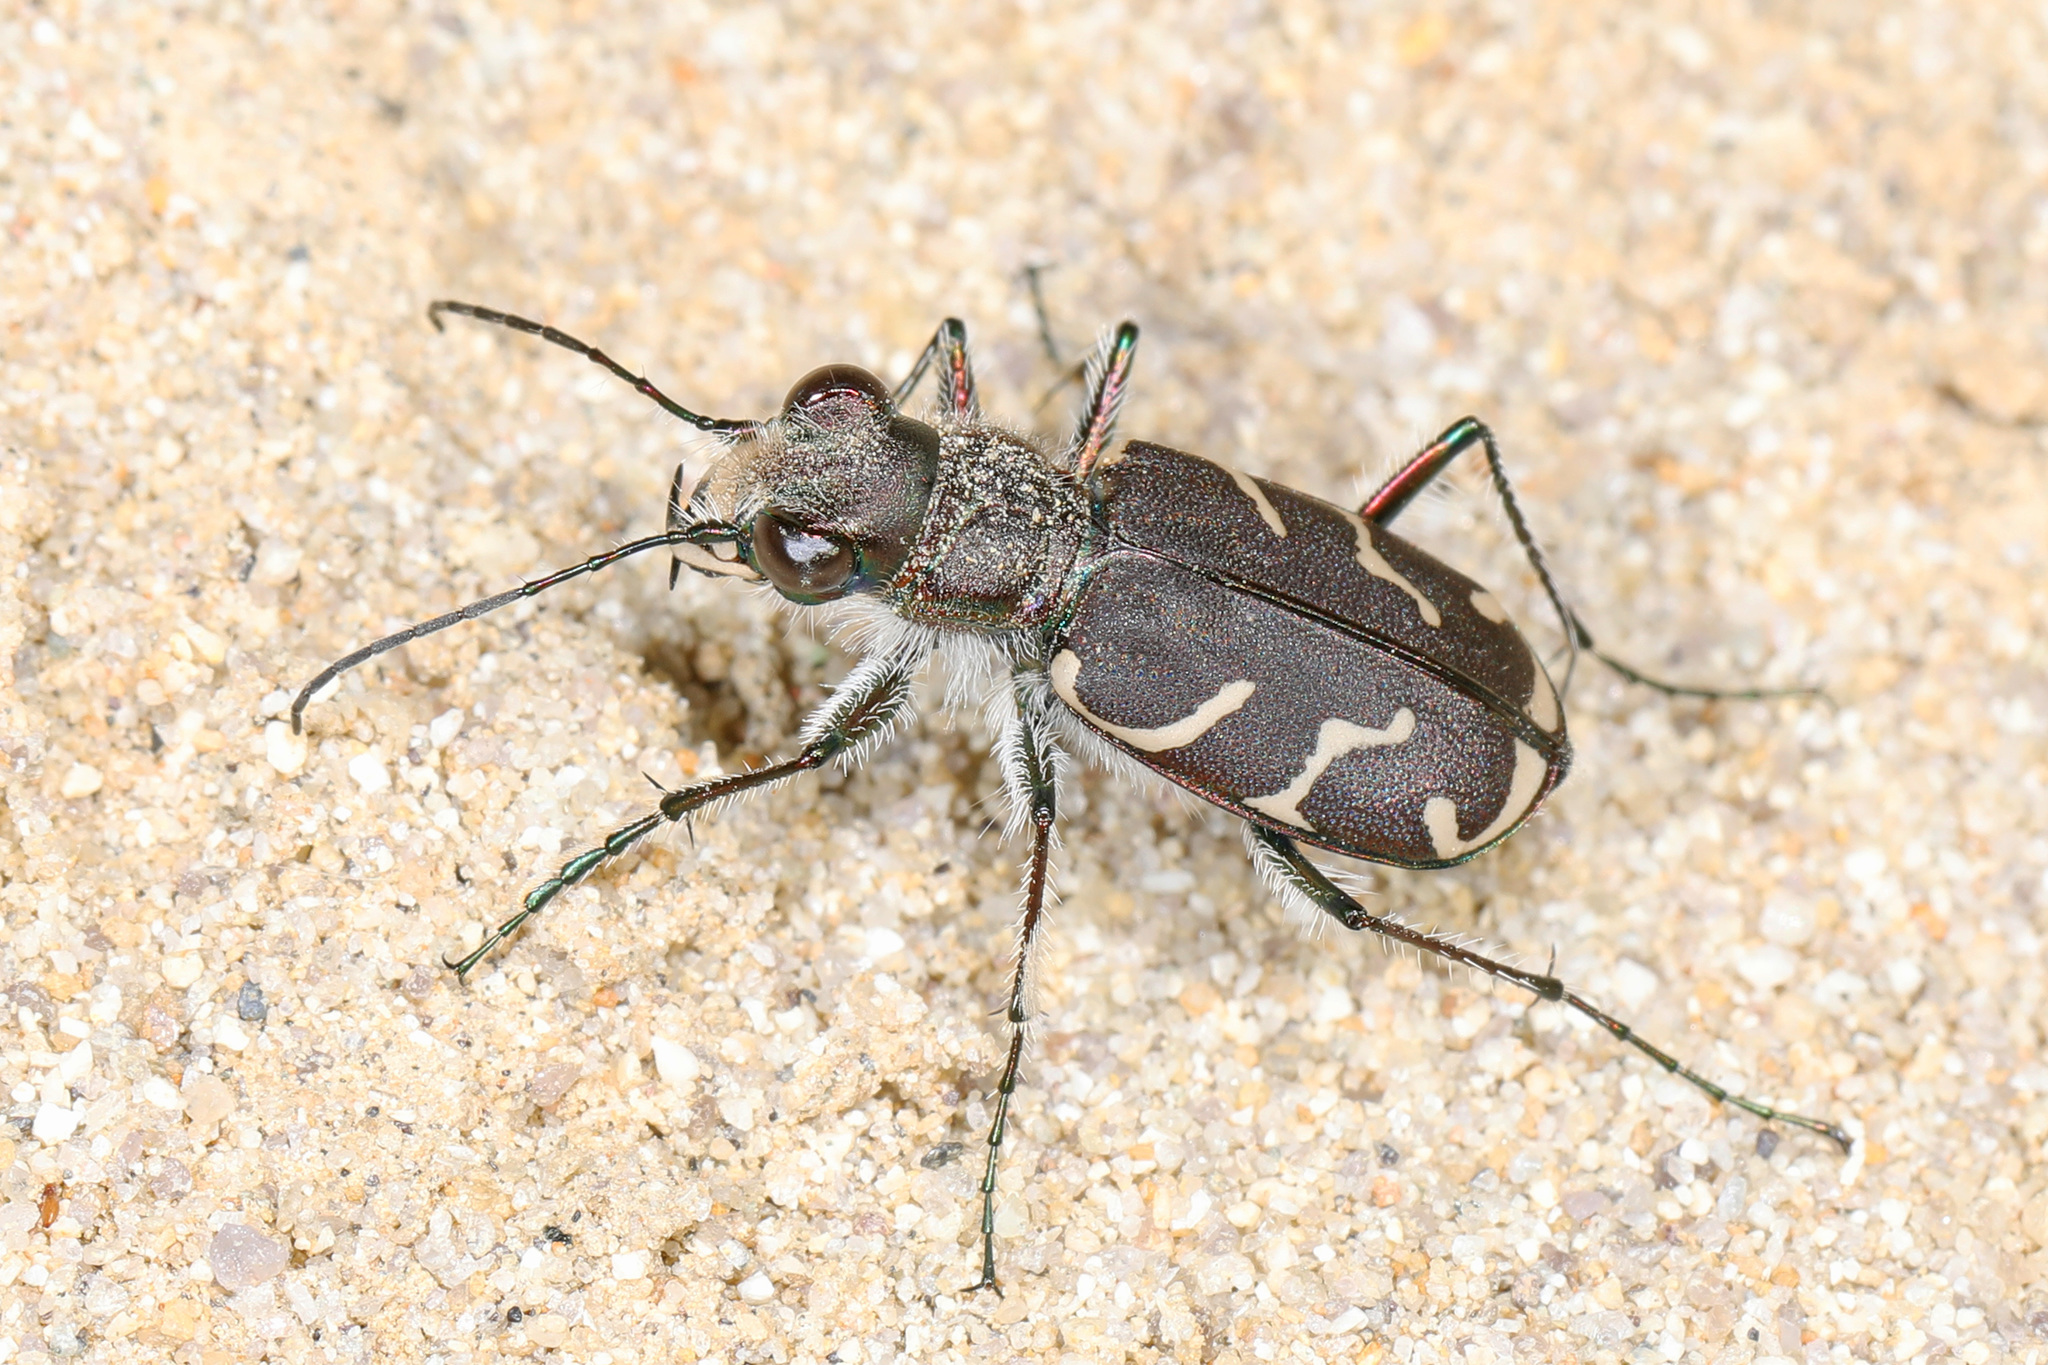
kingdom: Animalia
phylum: Arthropoda
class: Insecta
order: Coleoptera
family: Carabidae
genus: Cicindela
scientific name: Cicindela tranquebarica
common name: Oblique-lined tiger beetle
